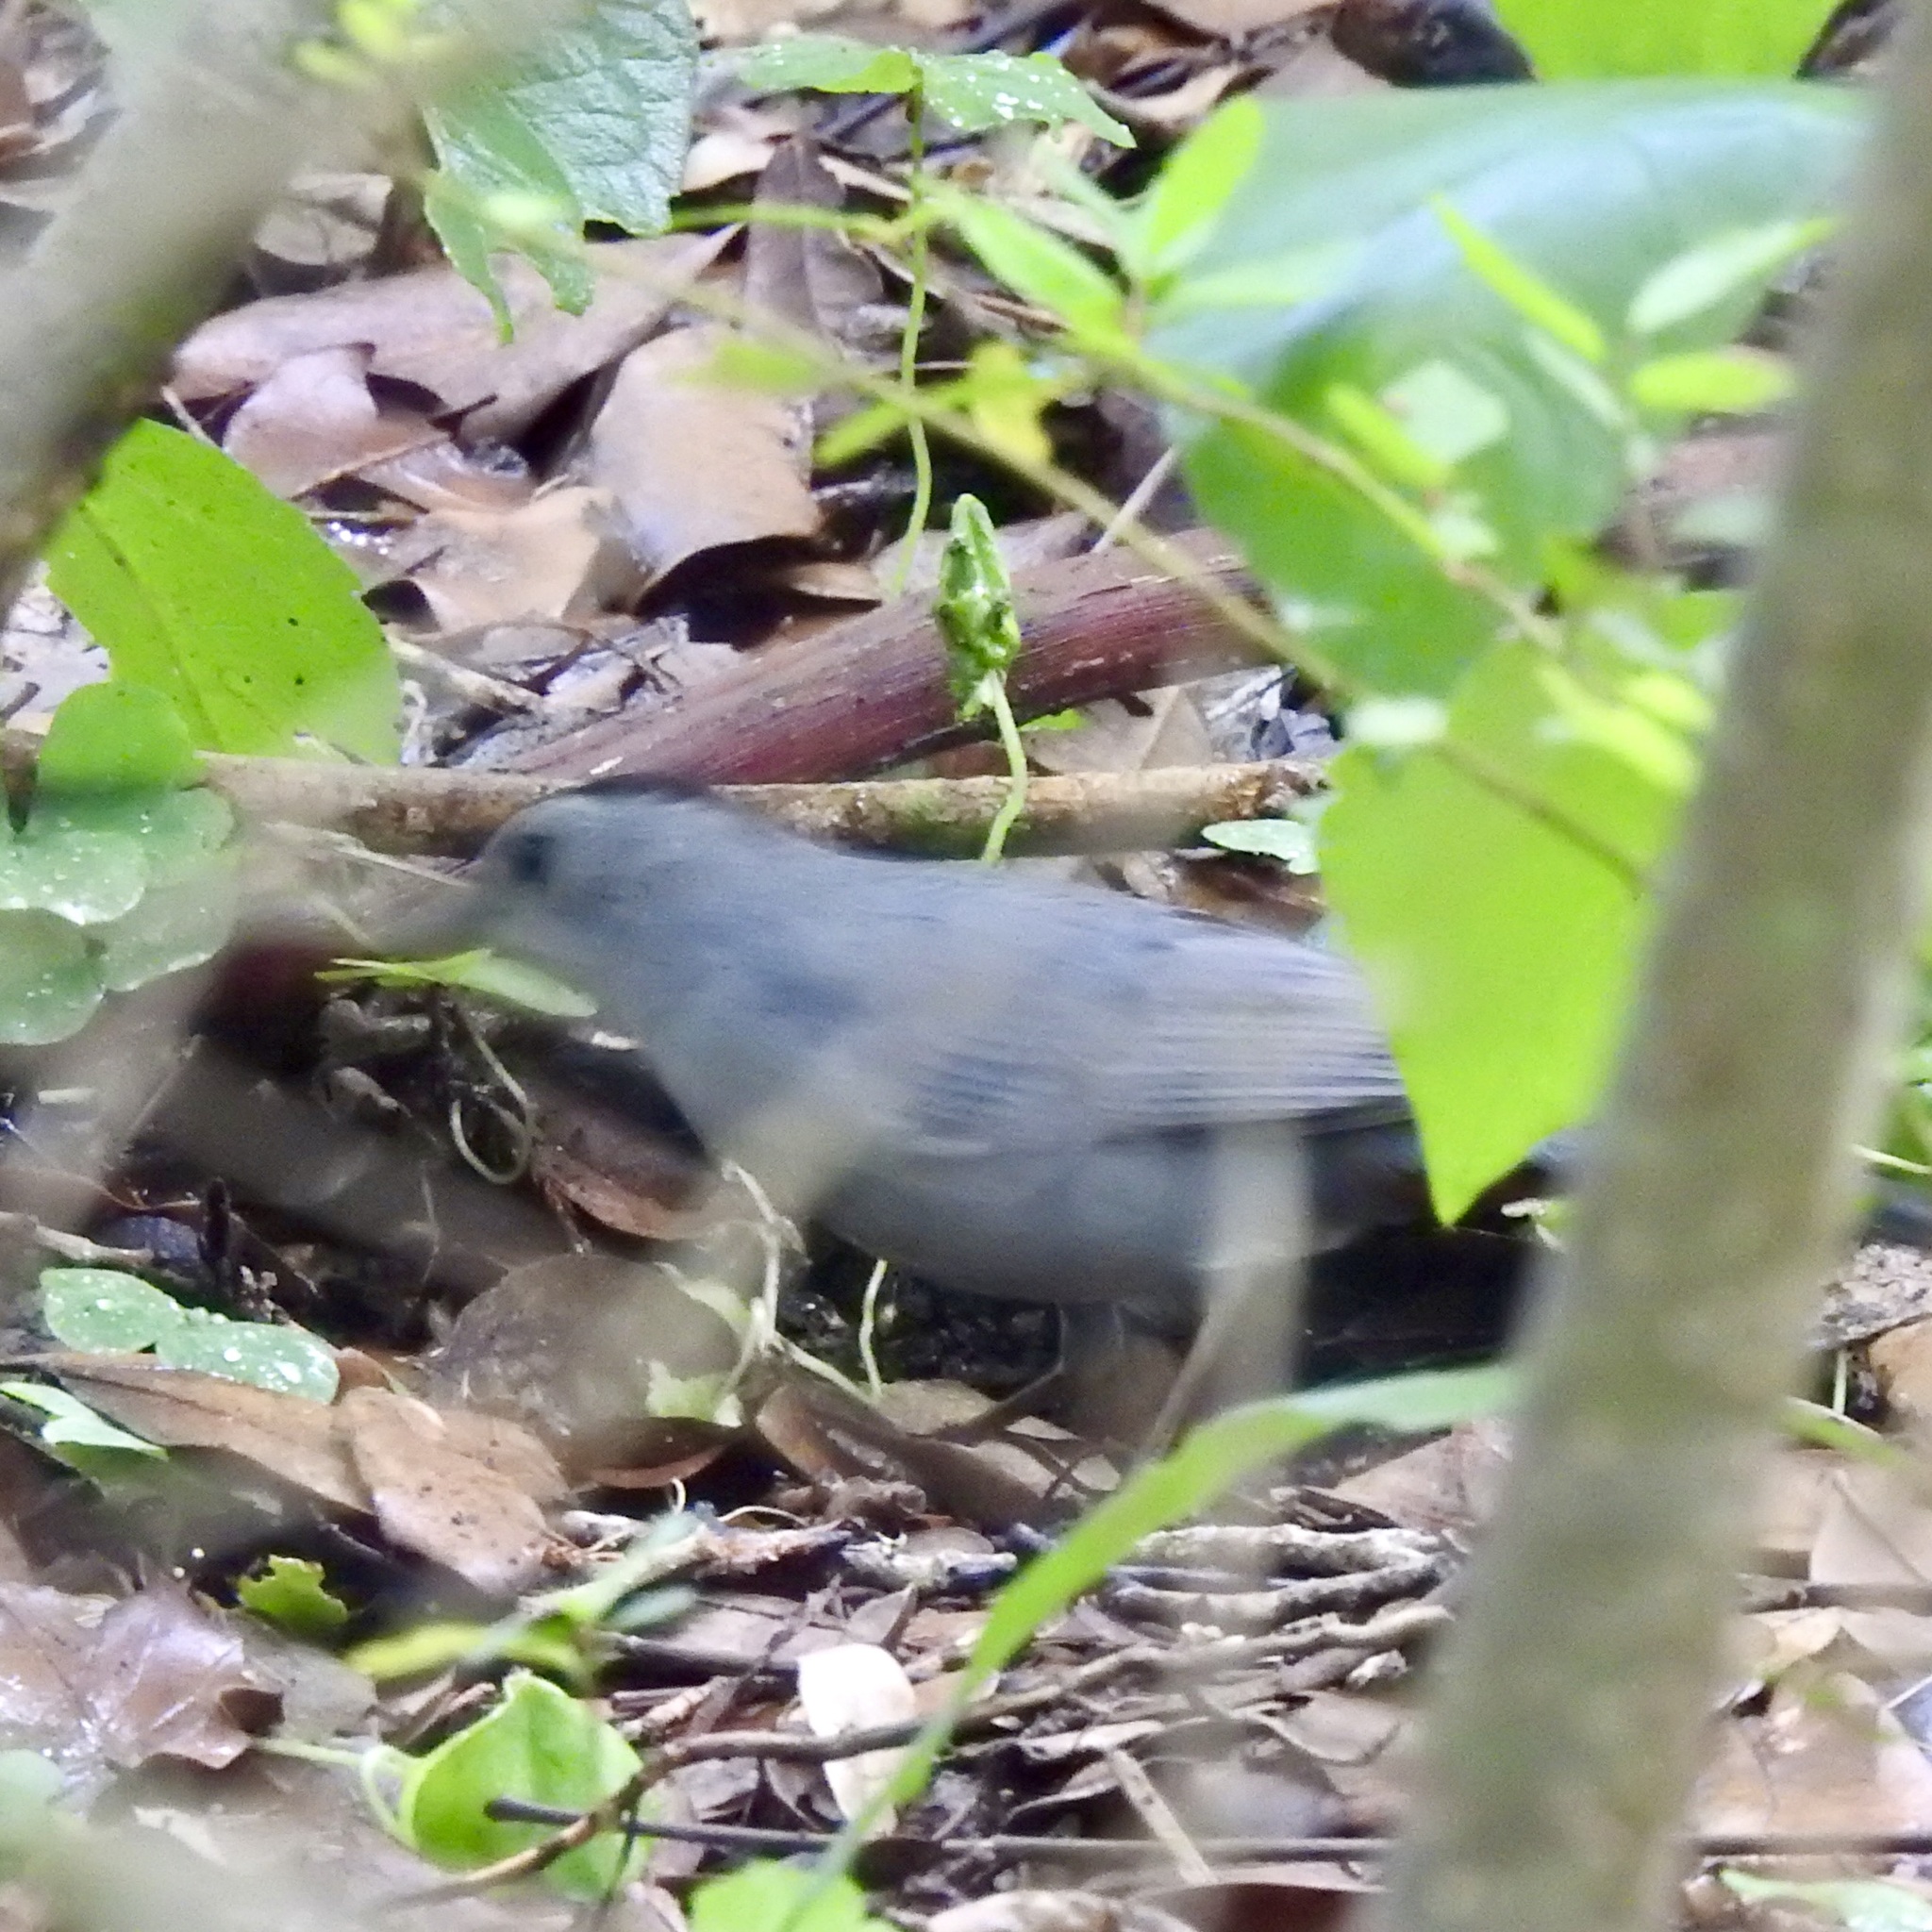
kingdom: Animalia
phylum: Chordata
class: Aves
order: Passeriformes
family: Mimidae
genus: Dumetella
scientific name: Dumetella carolinensis
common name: Gray catbird
